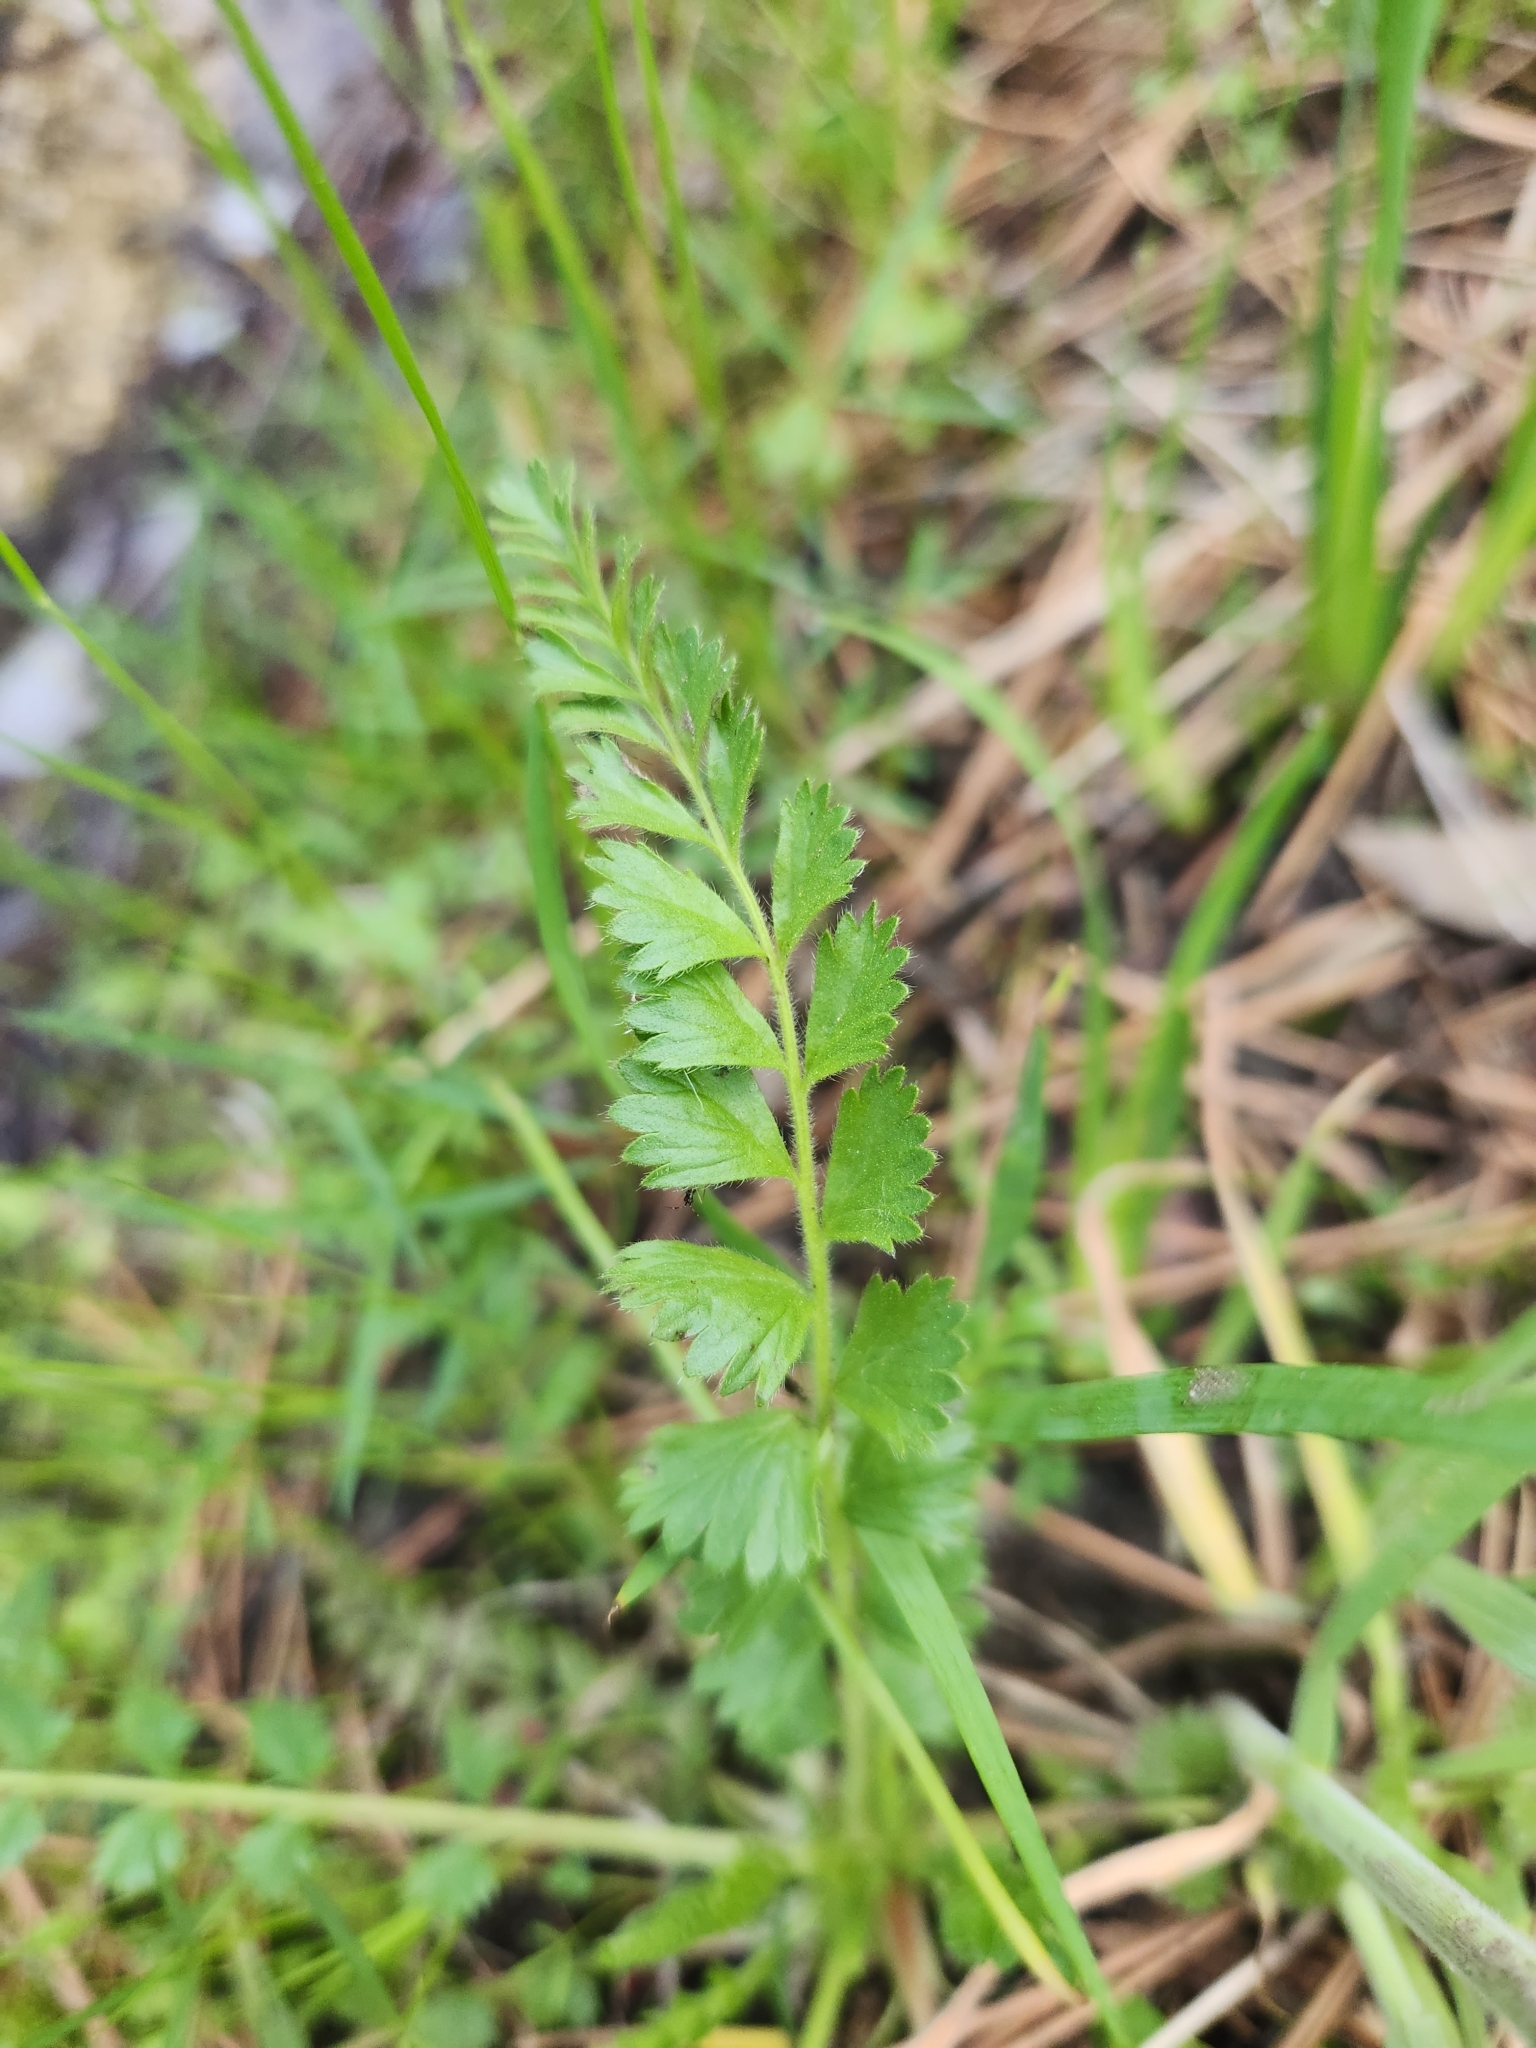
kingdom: Plantae
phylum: Tracheophyta
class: Magnoliopsida
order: Rosales
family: Rosaceae
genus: Potentilla
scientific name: Potentilla clevelandii
